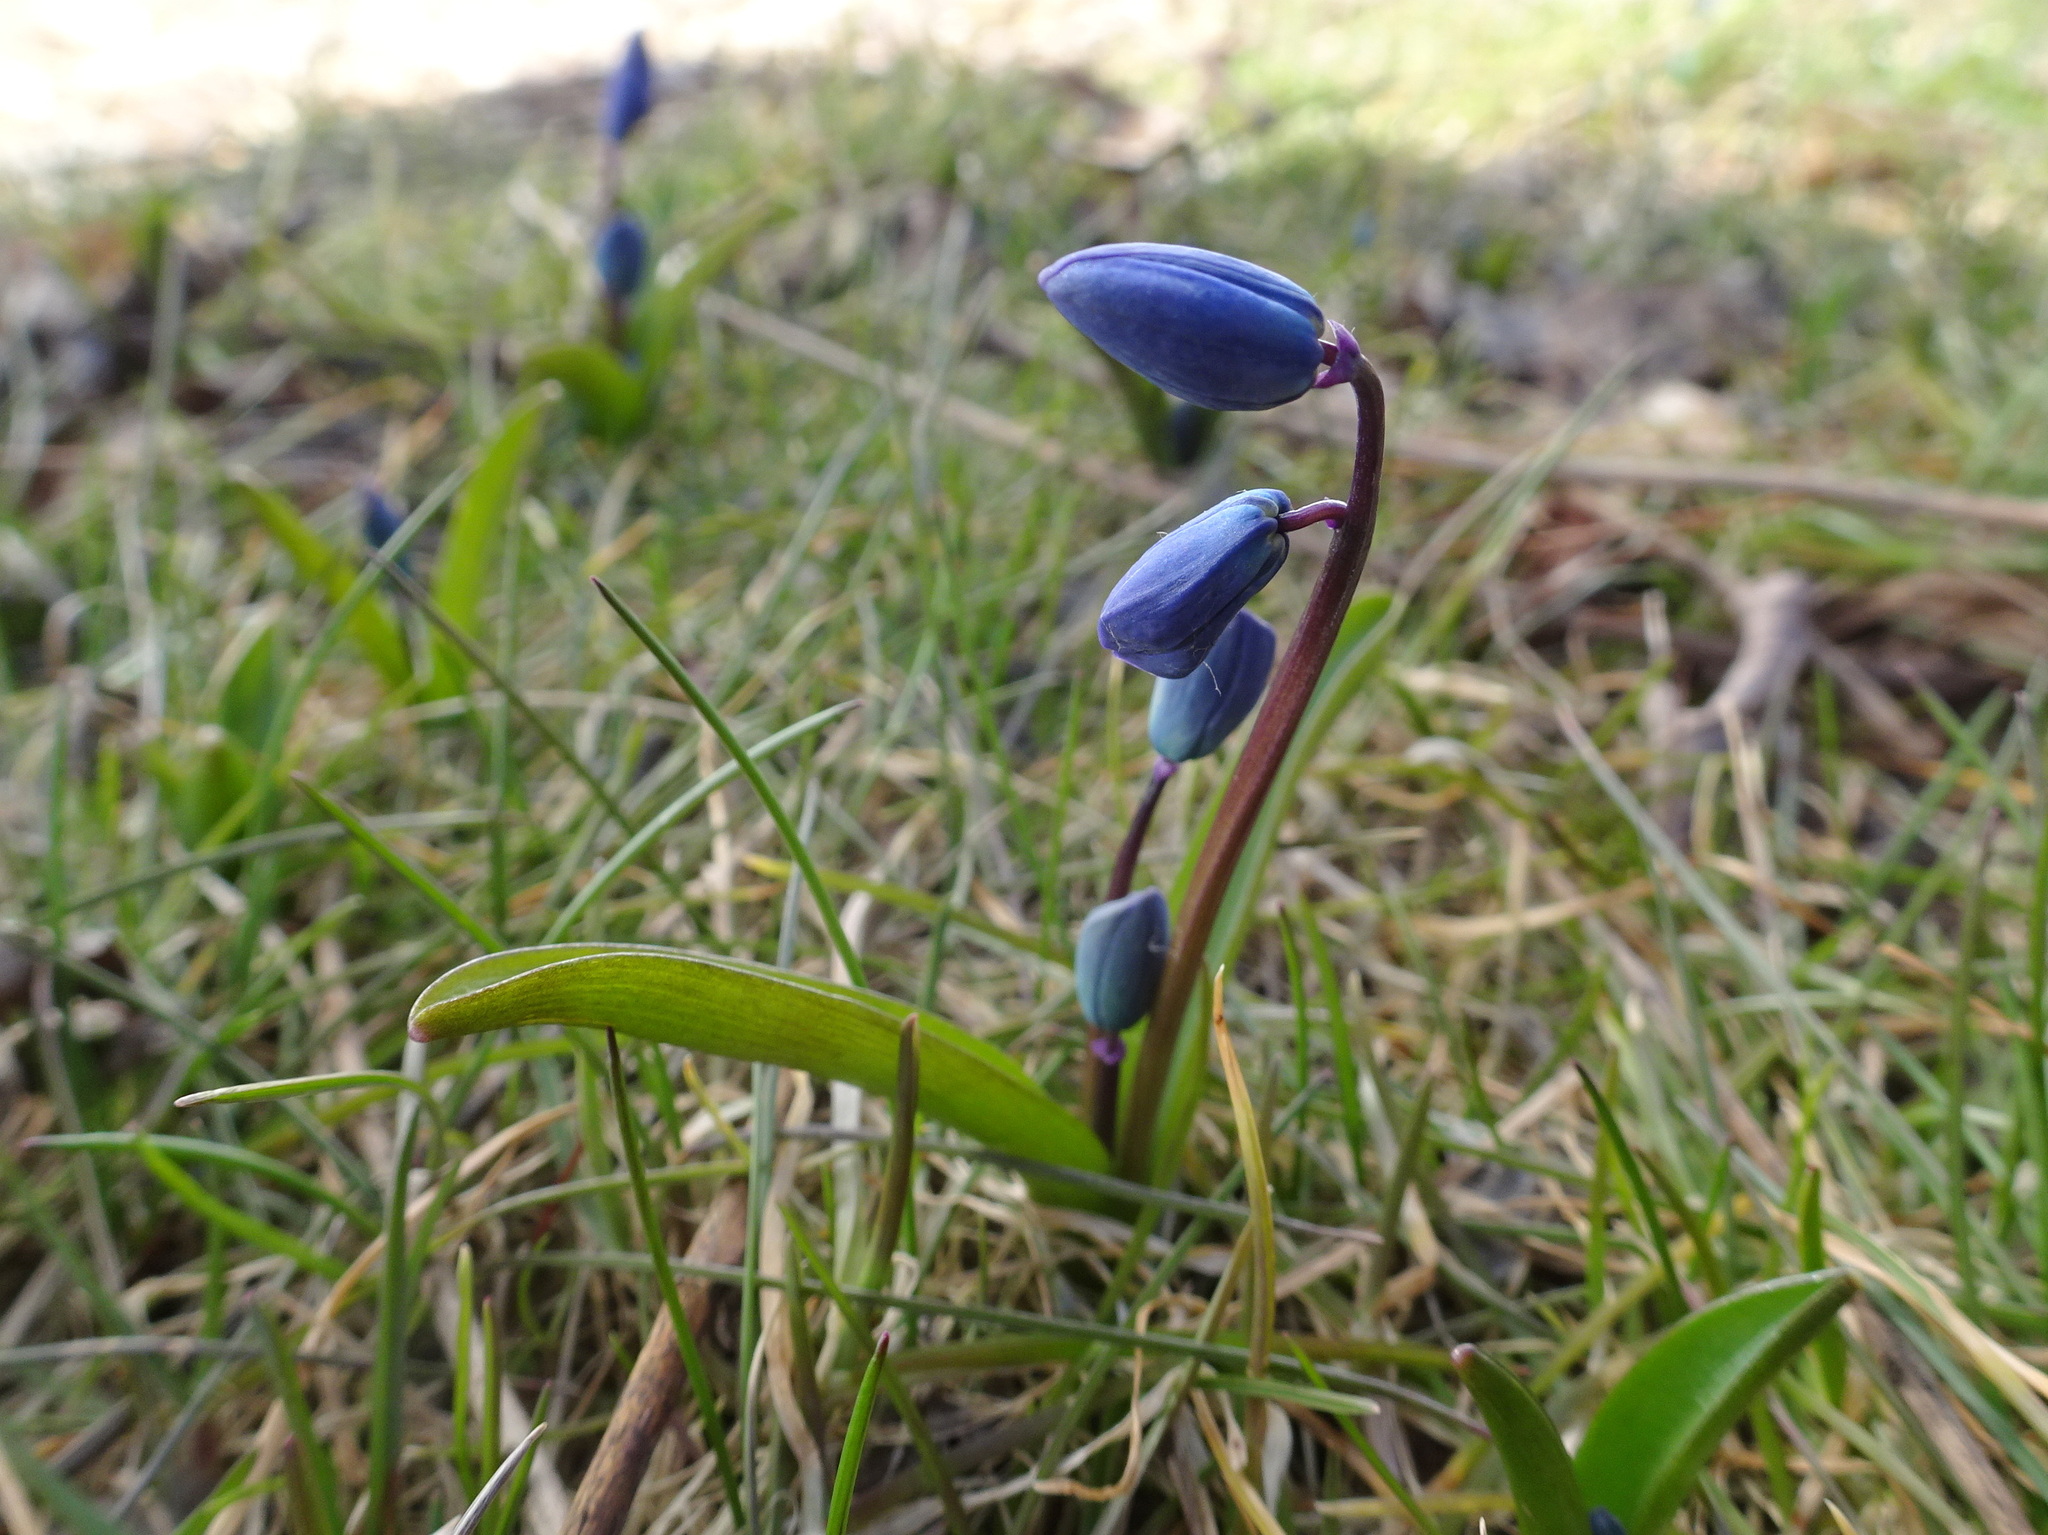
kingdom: Plantae
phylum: Tracheophyta
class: Liliopsida
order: Asparagales
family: Asparagaceae
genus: Scilla
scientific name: Scilla siberica
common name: Siberian squill
